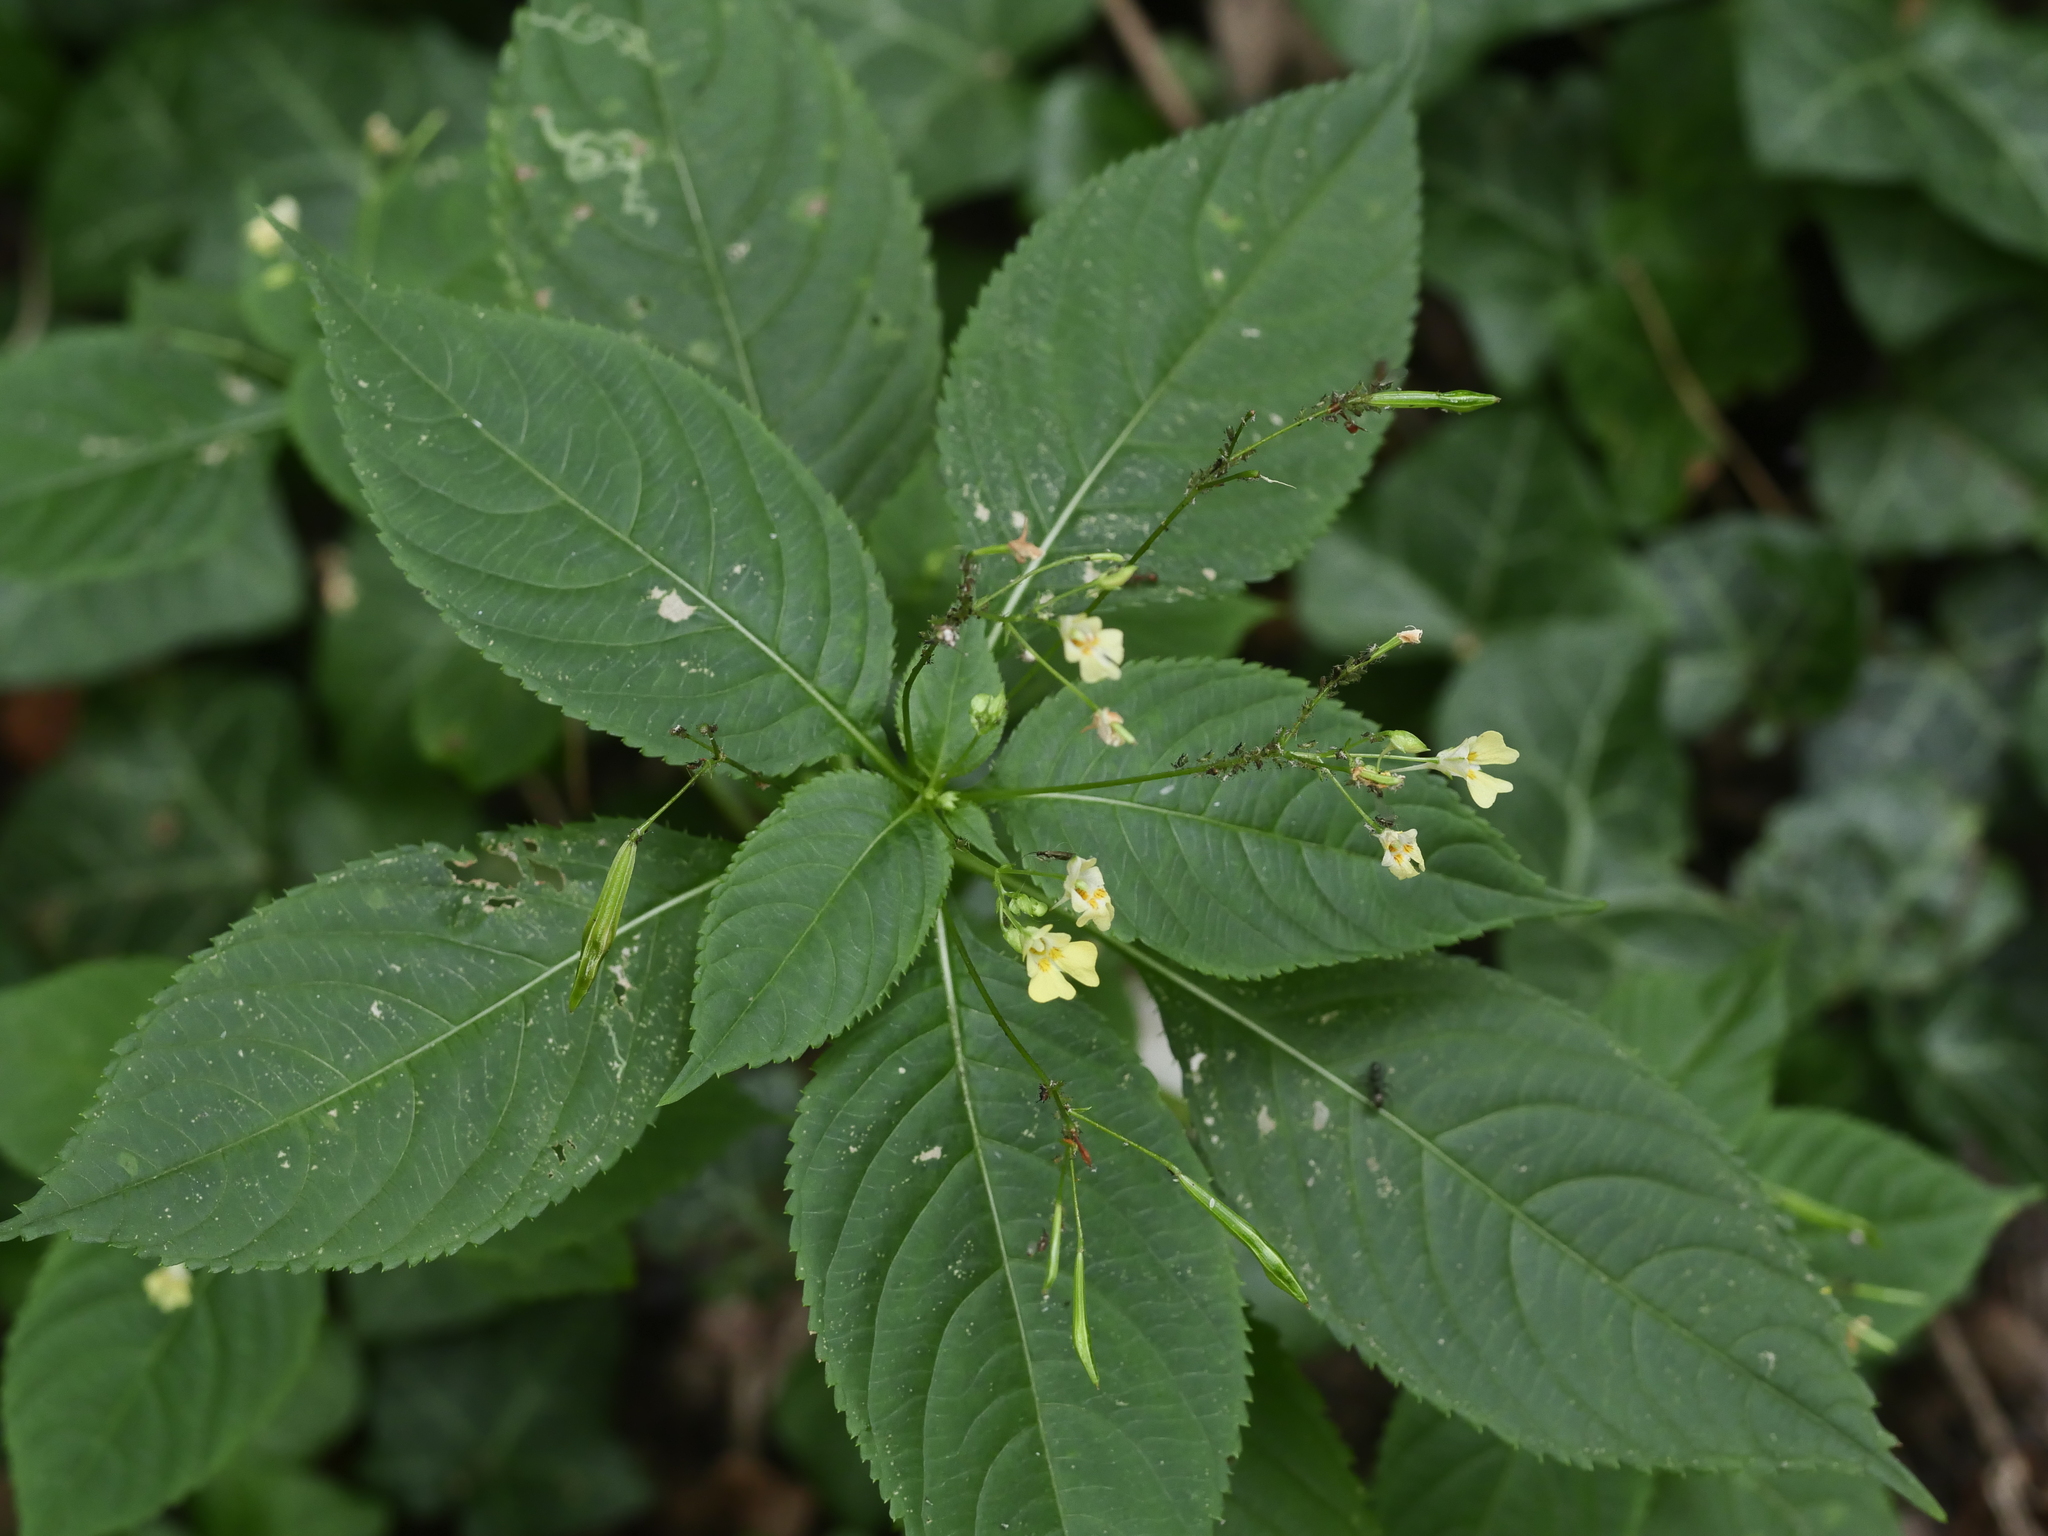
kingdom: Plantae
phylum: Tracheophyta
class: Magnoliopsida
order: Ericales
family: Balsaminaceae
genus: Impatiens
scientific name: Impatiens parviflora
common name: Small balsam
